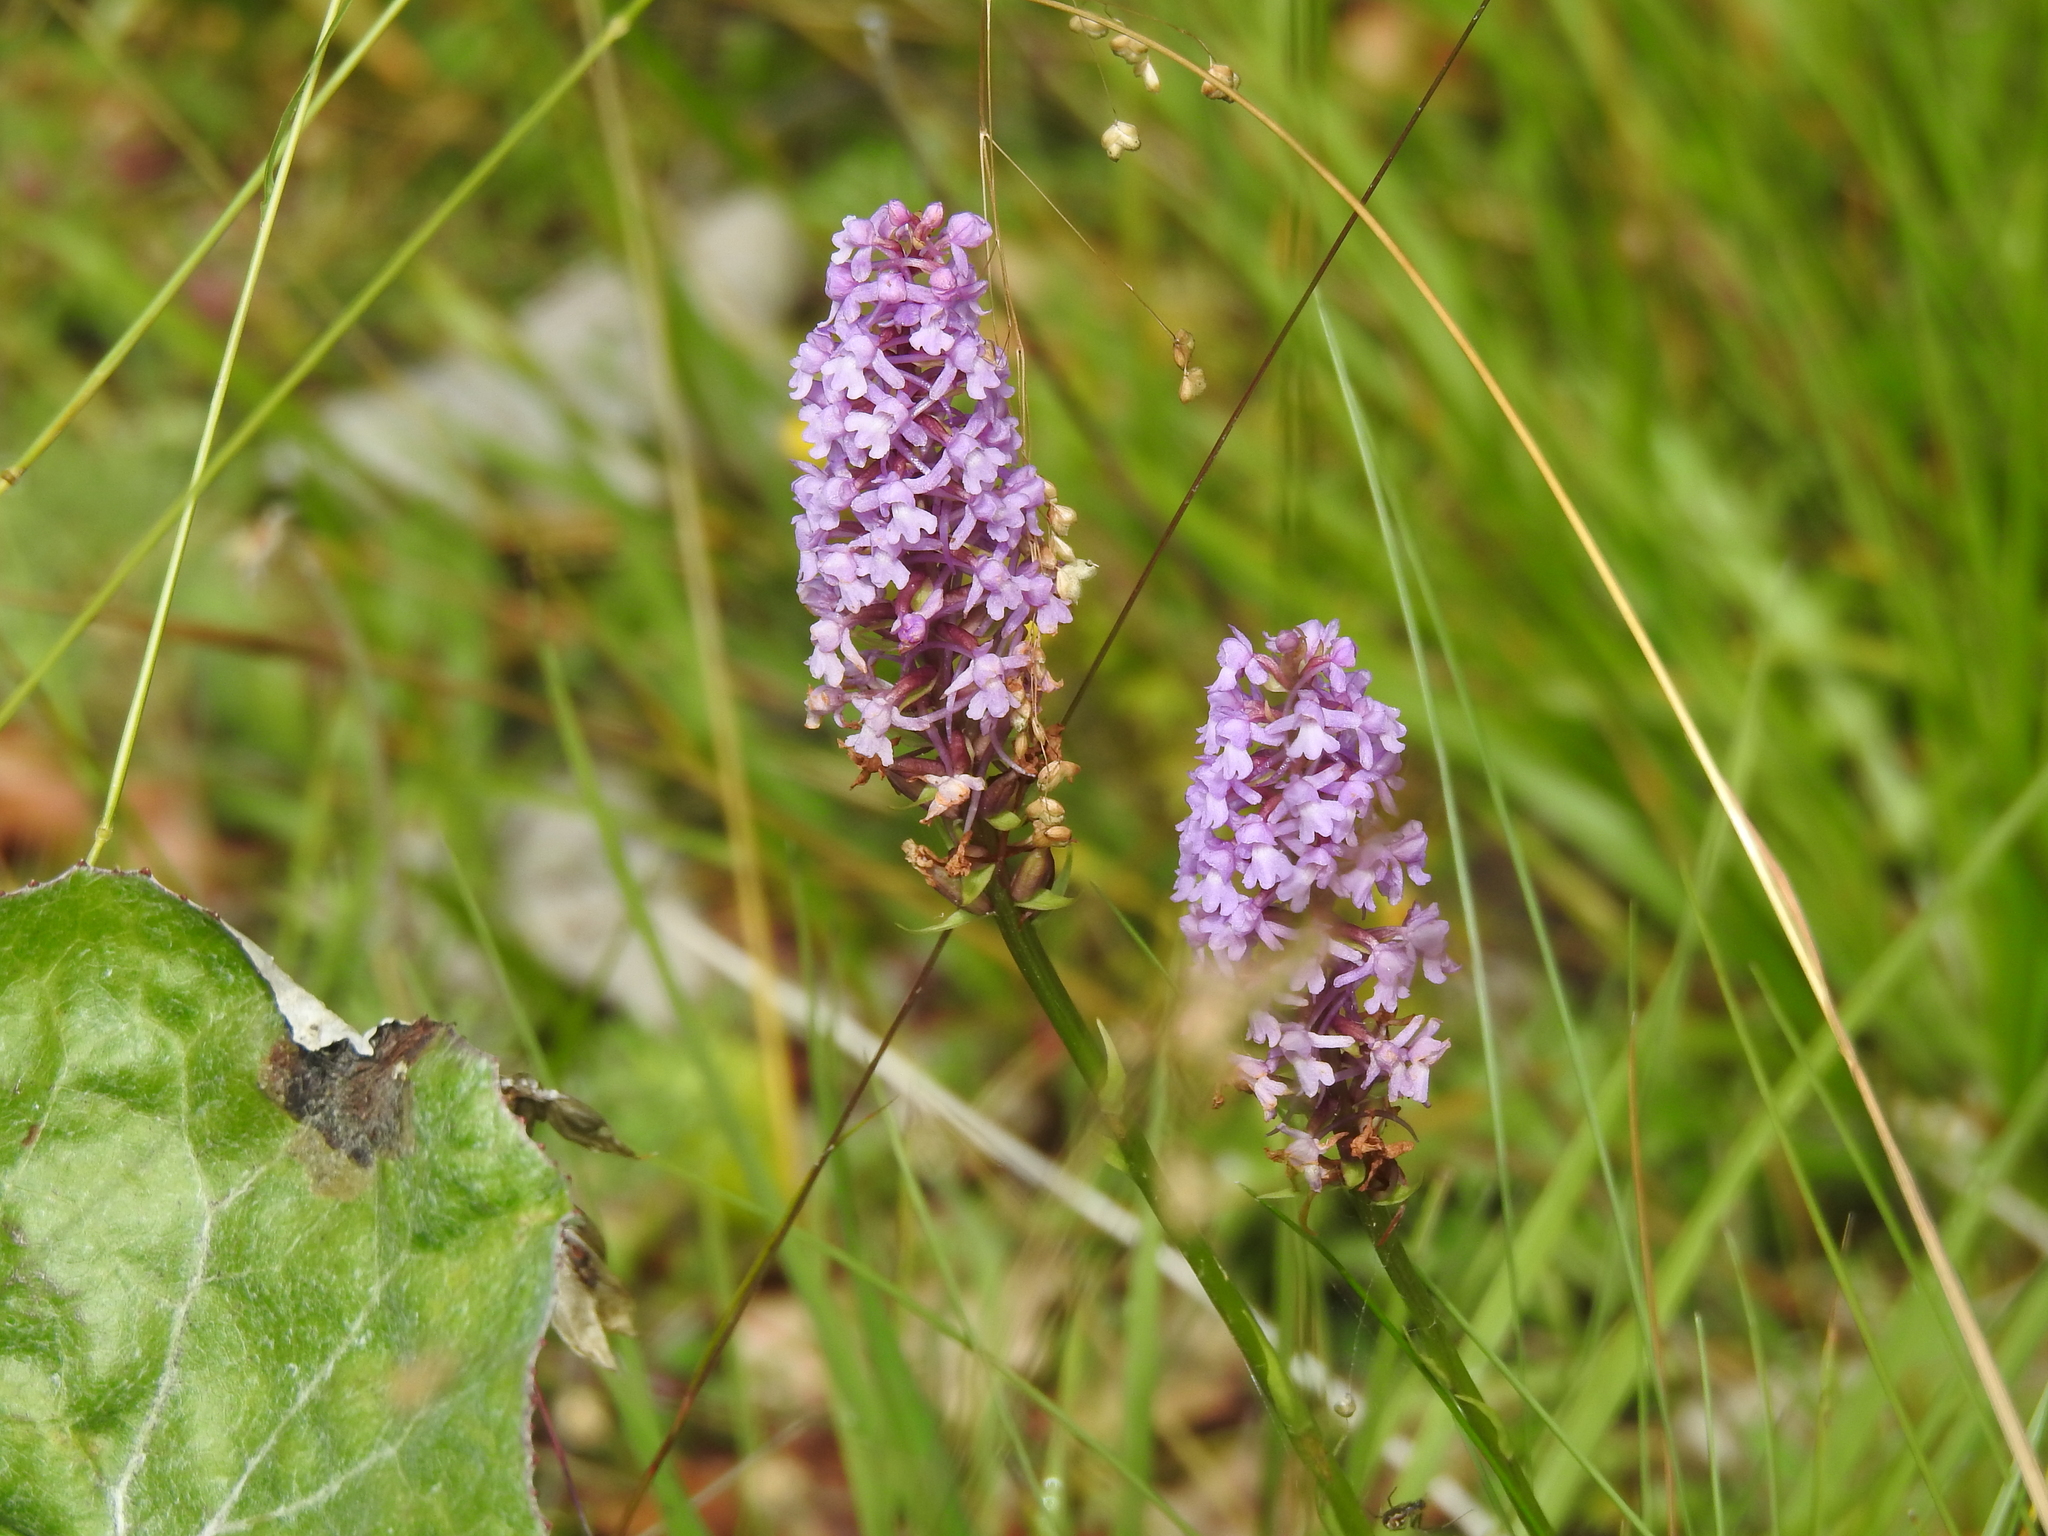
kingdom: Plantae
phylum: Tracheophyta
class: Liliopsida
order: Asparagales
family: Orchidaceae
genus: Gymnadenia
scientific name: Gymnadenia conopsea
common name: Fragrant orchid
